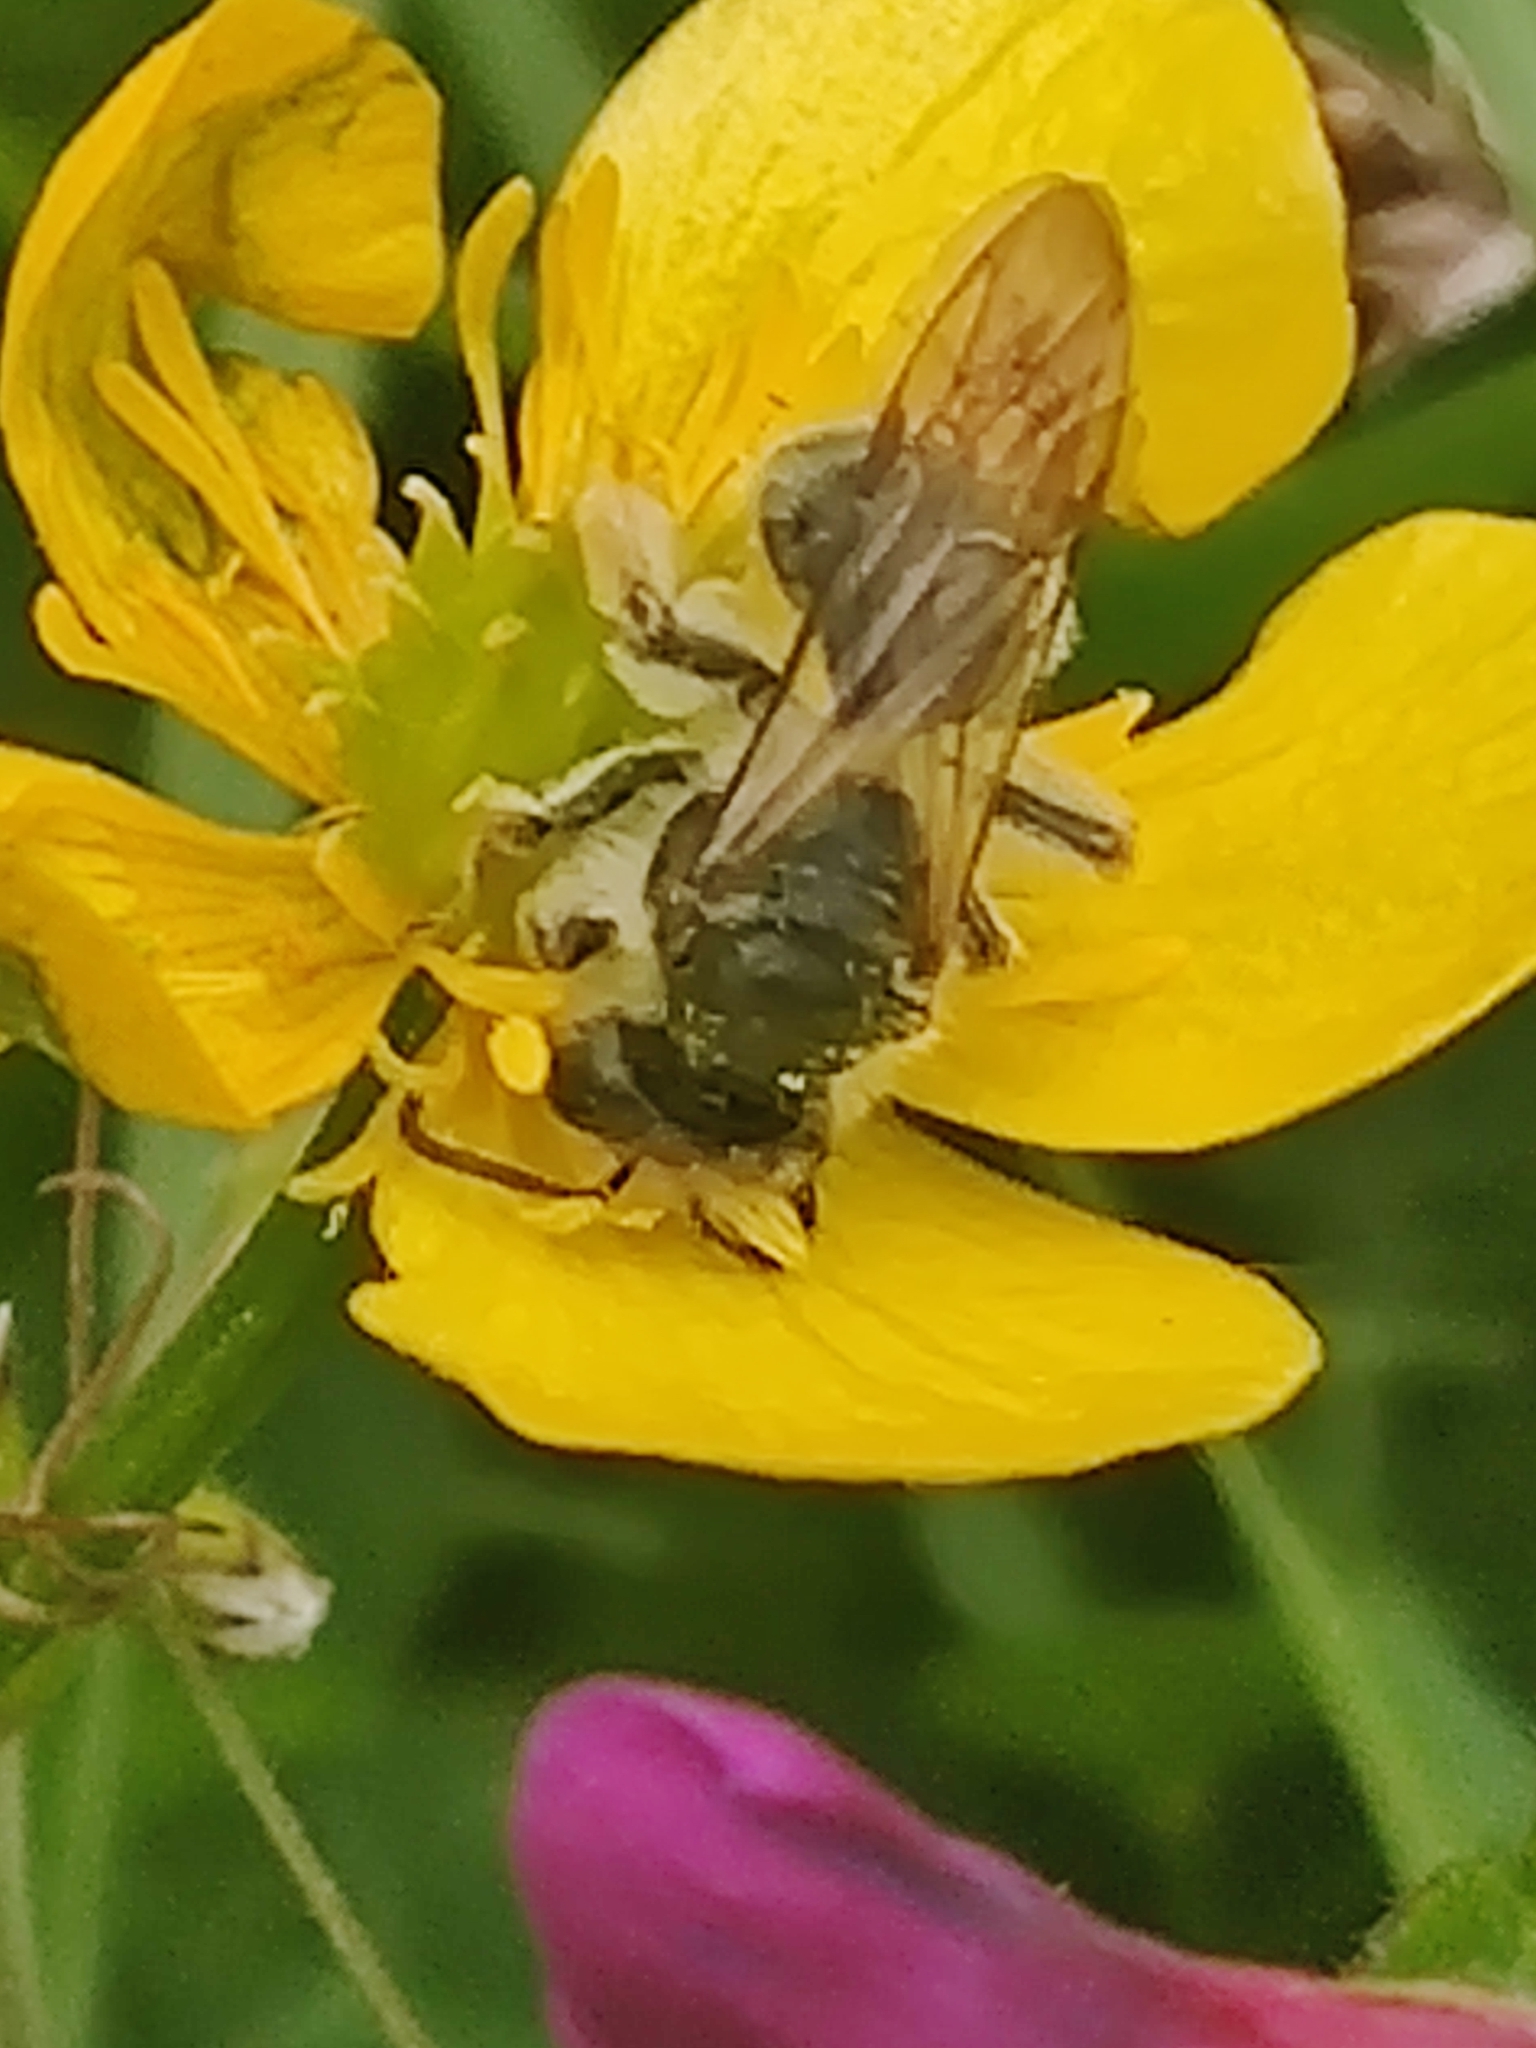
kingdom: Plantae
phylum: Tracheophyta
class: Magnoliopsida
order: Caryophyllales
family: Caryophyllaceae
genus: Cerastium
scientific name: Cerastium fontanum
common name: Common mouse-ear
